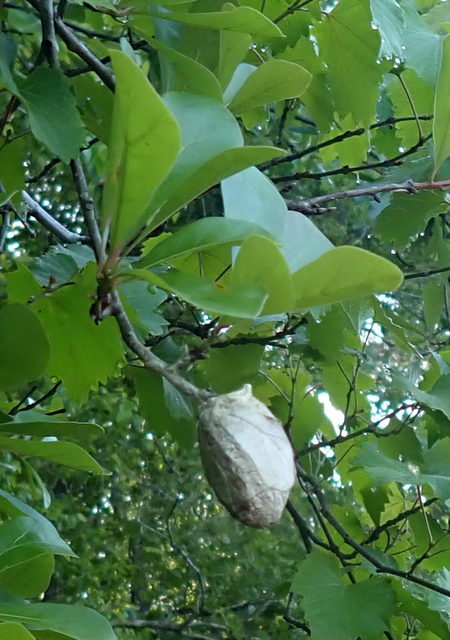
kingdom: Animalia
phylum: Arthropoda
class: Insecta
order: Lepidoptera
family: Saturniidae
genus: Antheraea
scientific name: Antheraea polyphemus
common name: Polyphemus moth
